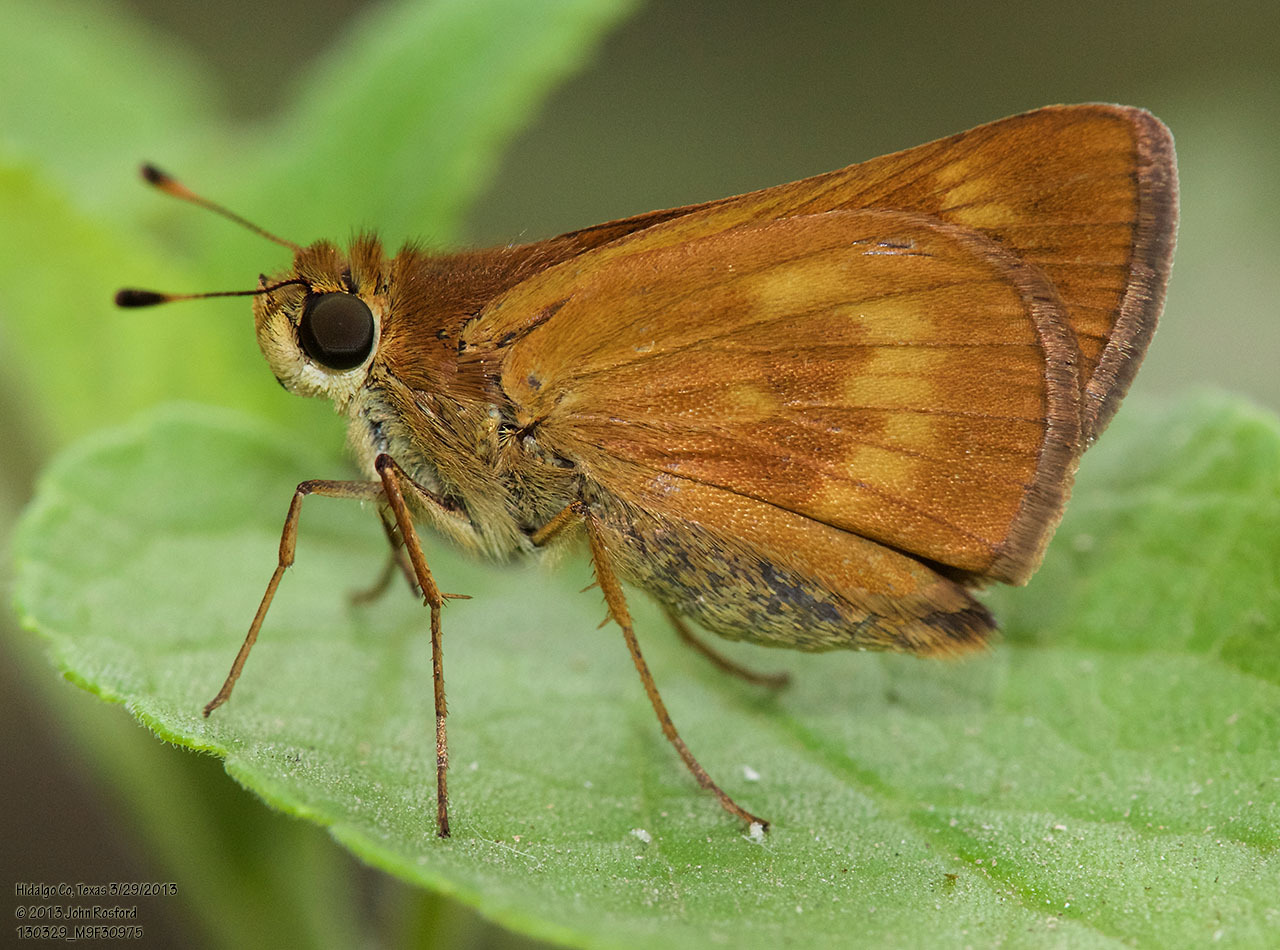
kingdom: Animalia
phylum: Arthropoda
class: Insecta
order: Lepidoptera
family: Hesperiidae
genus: Polites
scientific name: Polites otho
